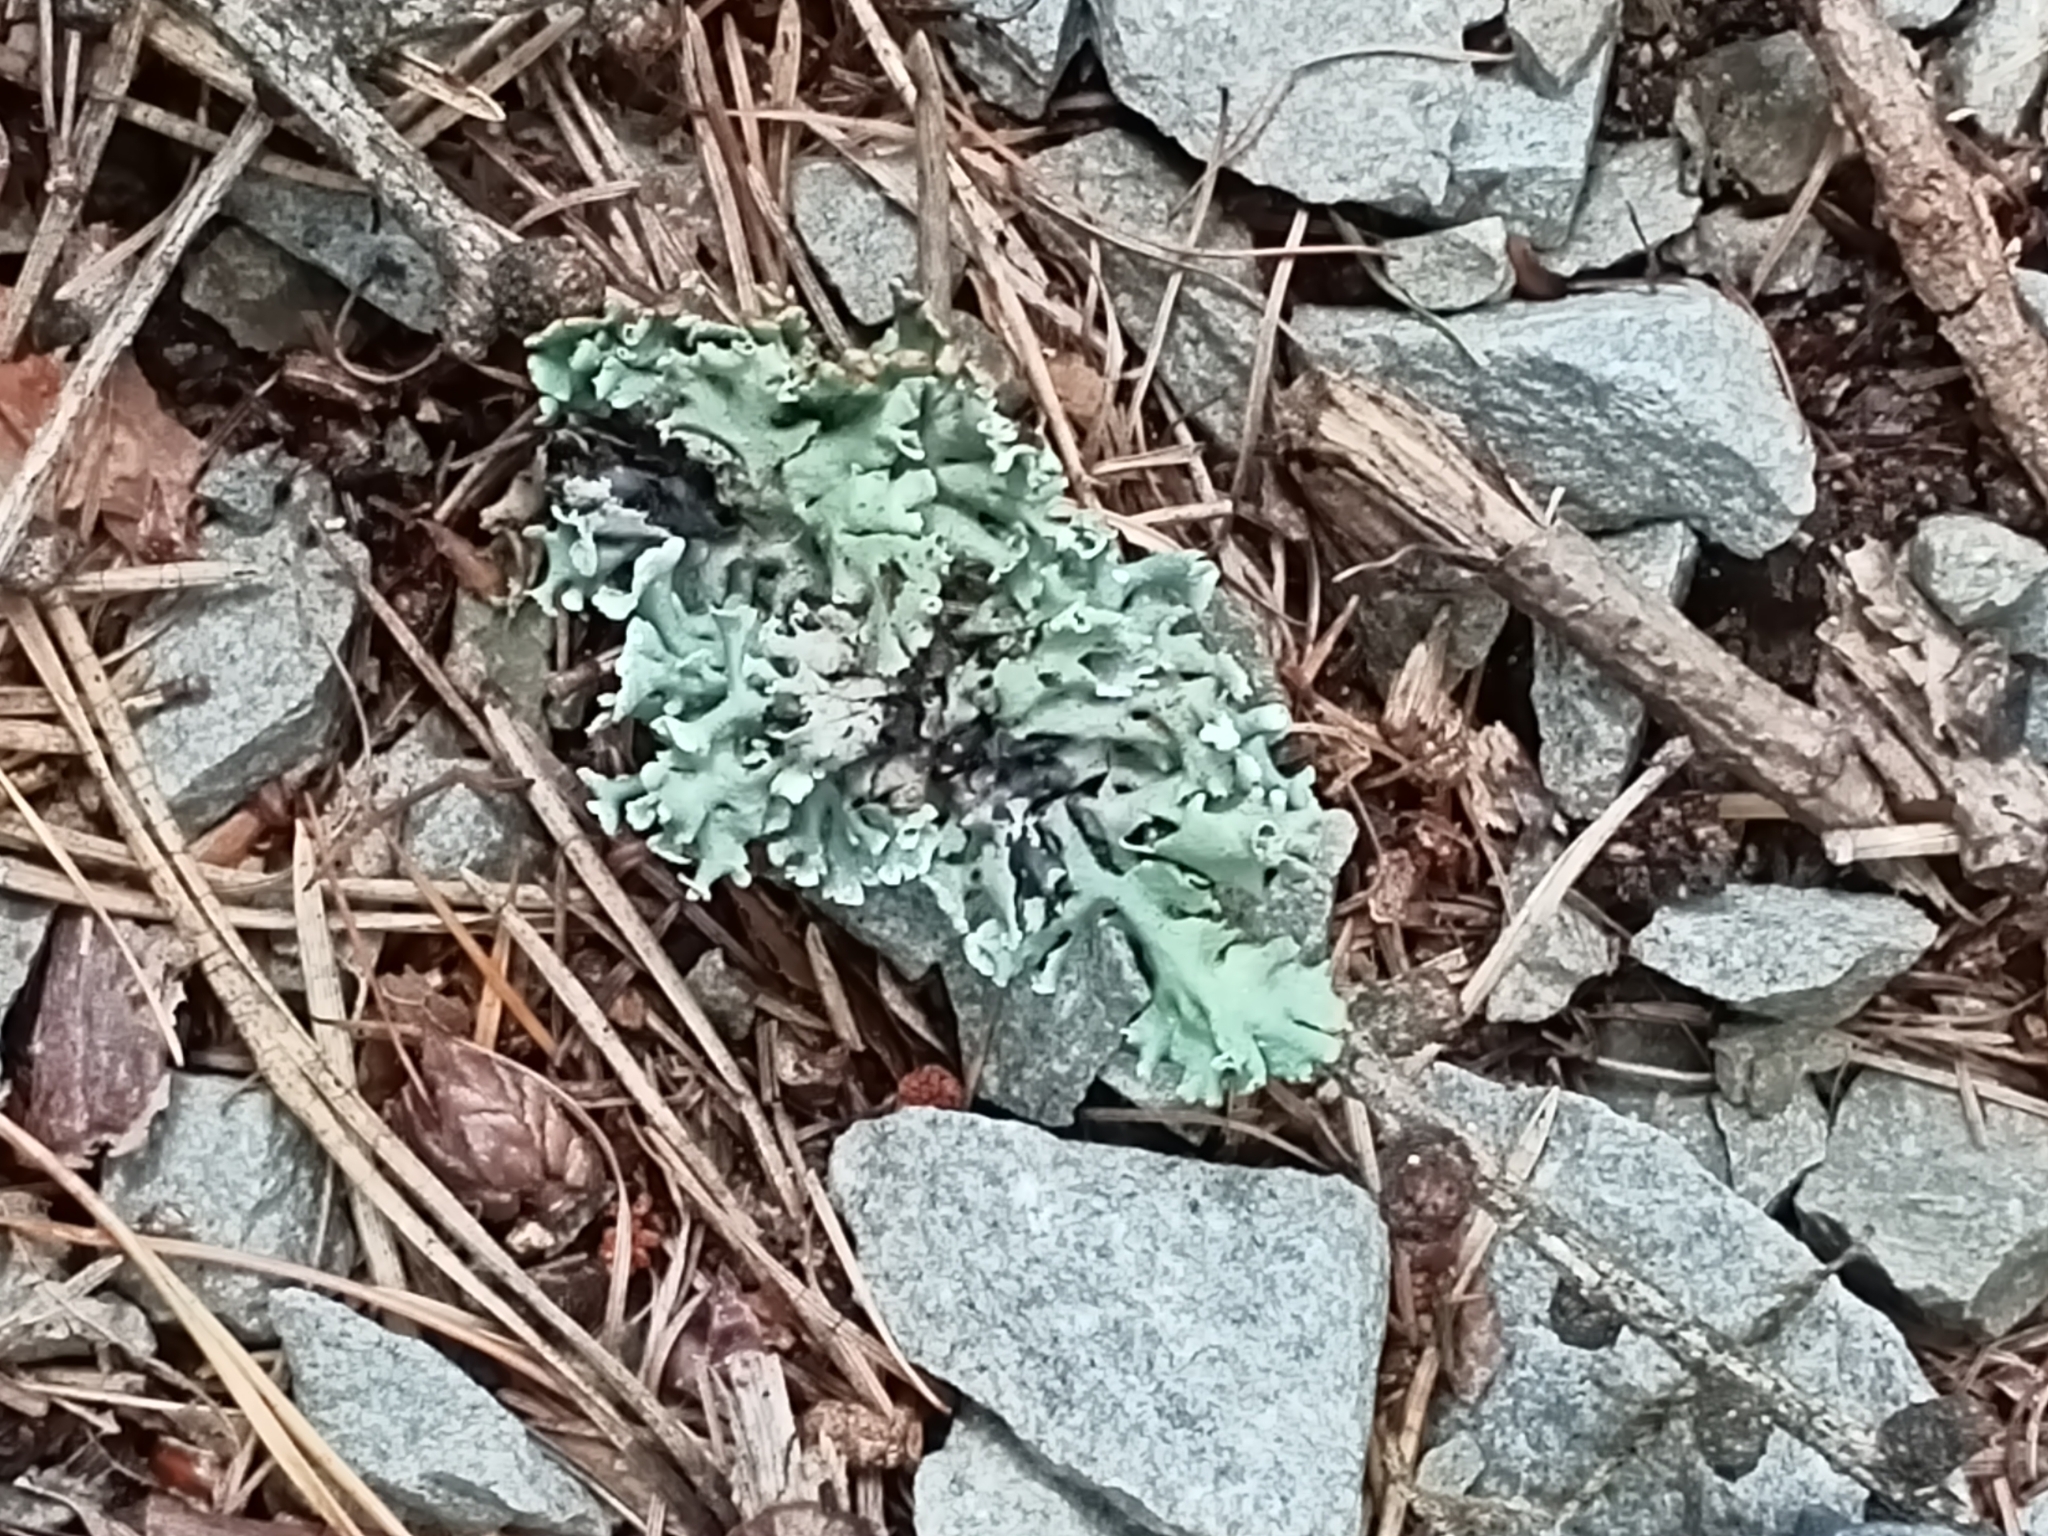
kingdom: Fungi
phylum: Ascomycota
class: Lecanoromycetes
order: Lecanorales
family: Parmeliaceae
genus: Hypogymnia
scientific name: Hypogymnia physodes
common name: Dark crottle
